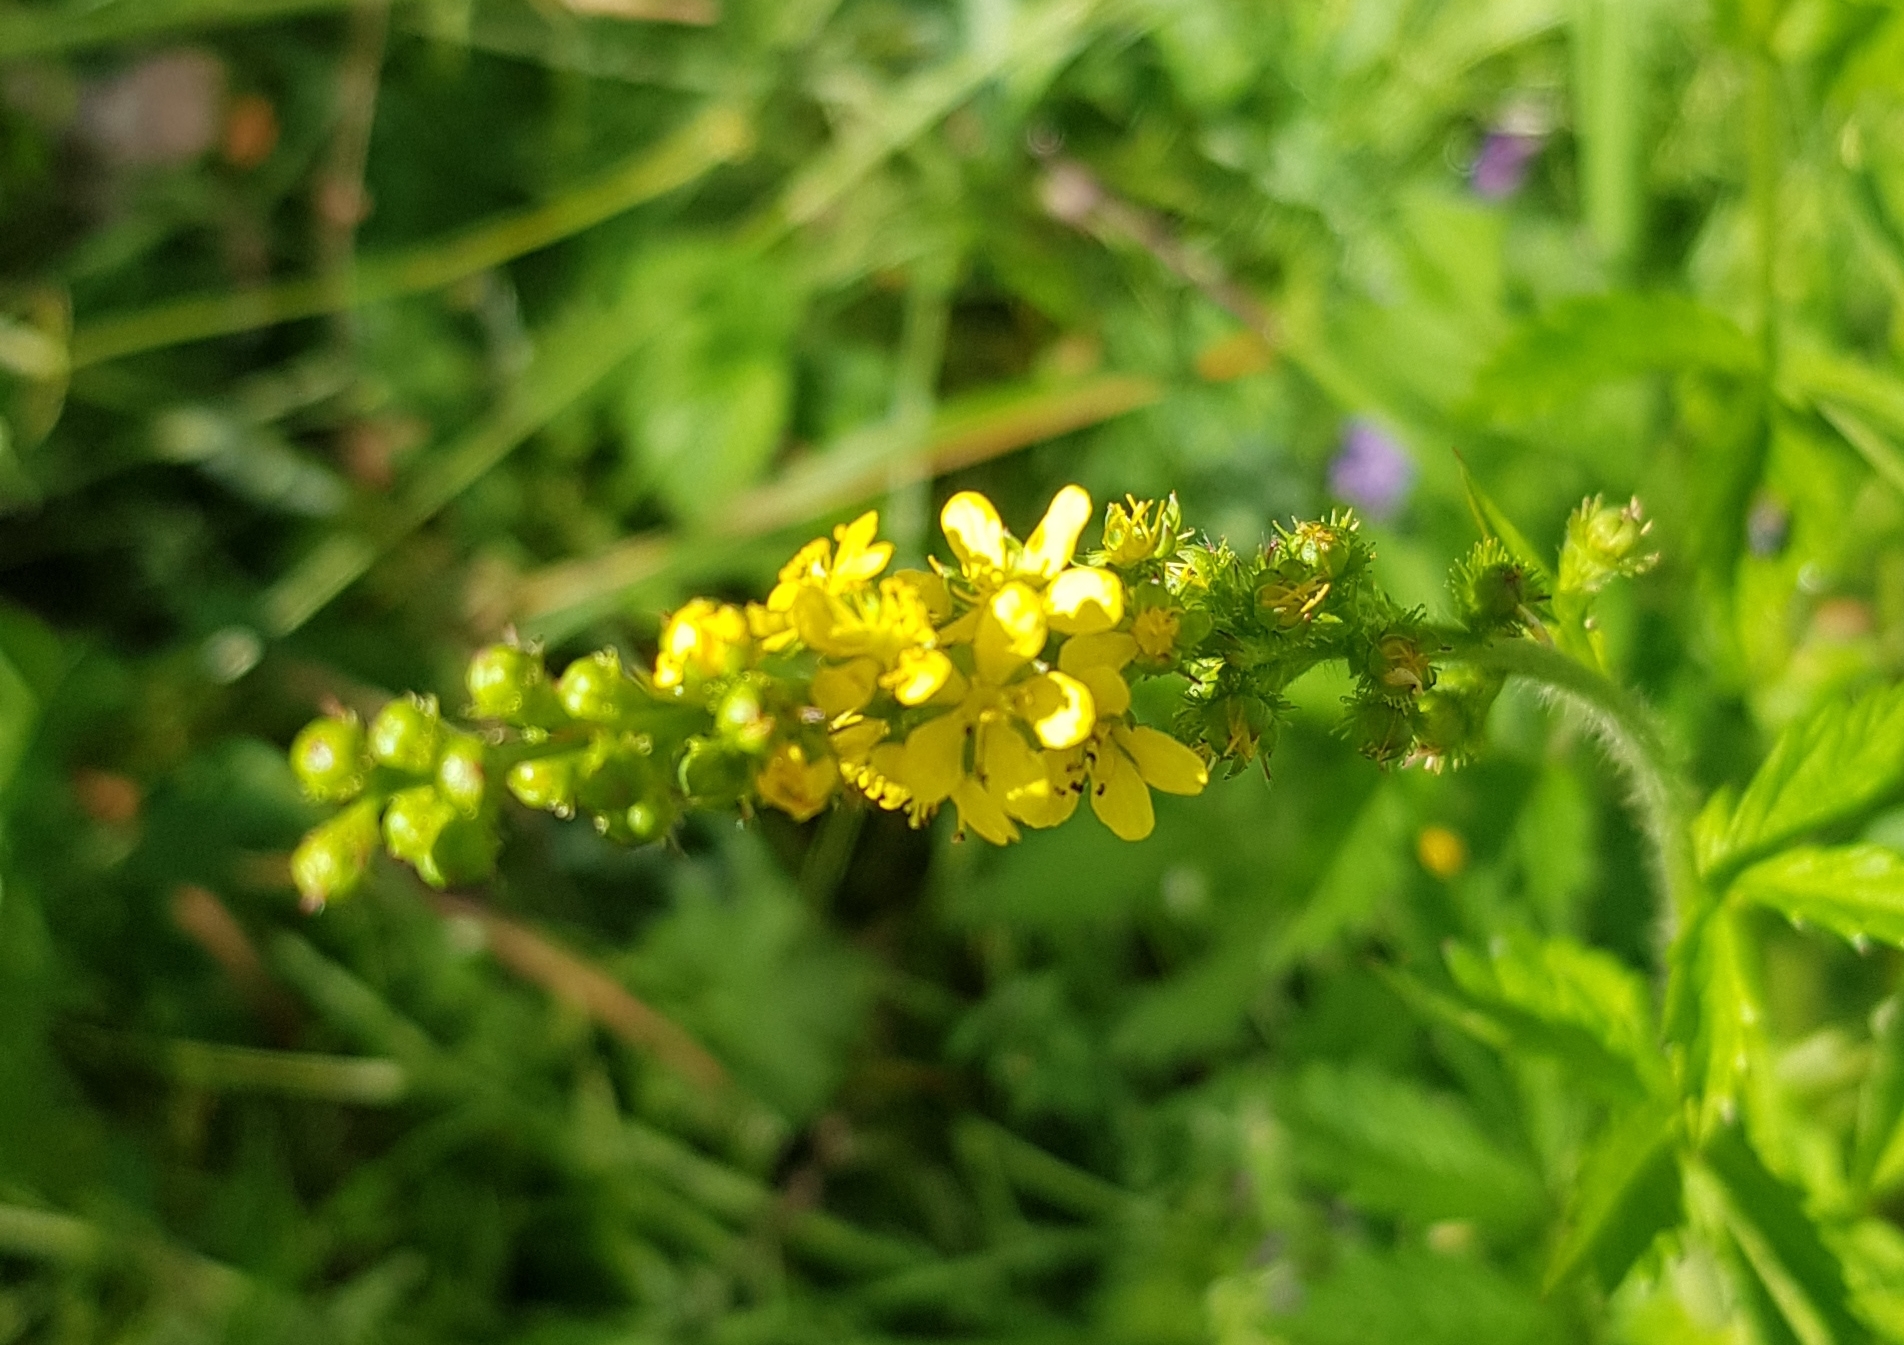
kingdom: Plantae
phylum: Tracheophyta
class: Magnoliopsida
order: Rosales
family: Rosaceae
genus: Agrimonia
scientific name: Agrimonia pilosa
